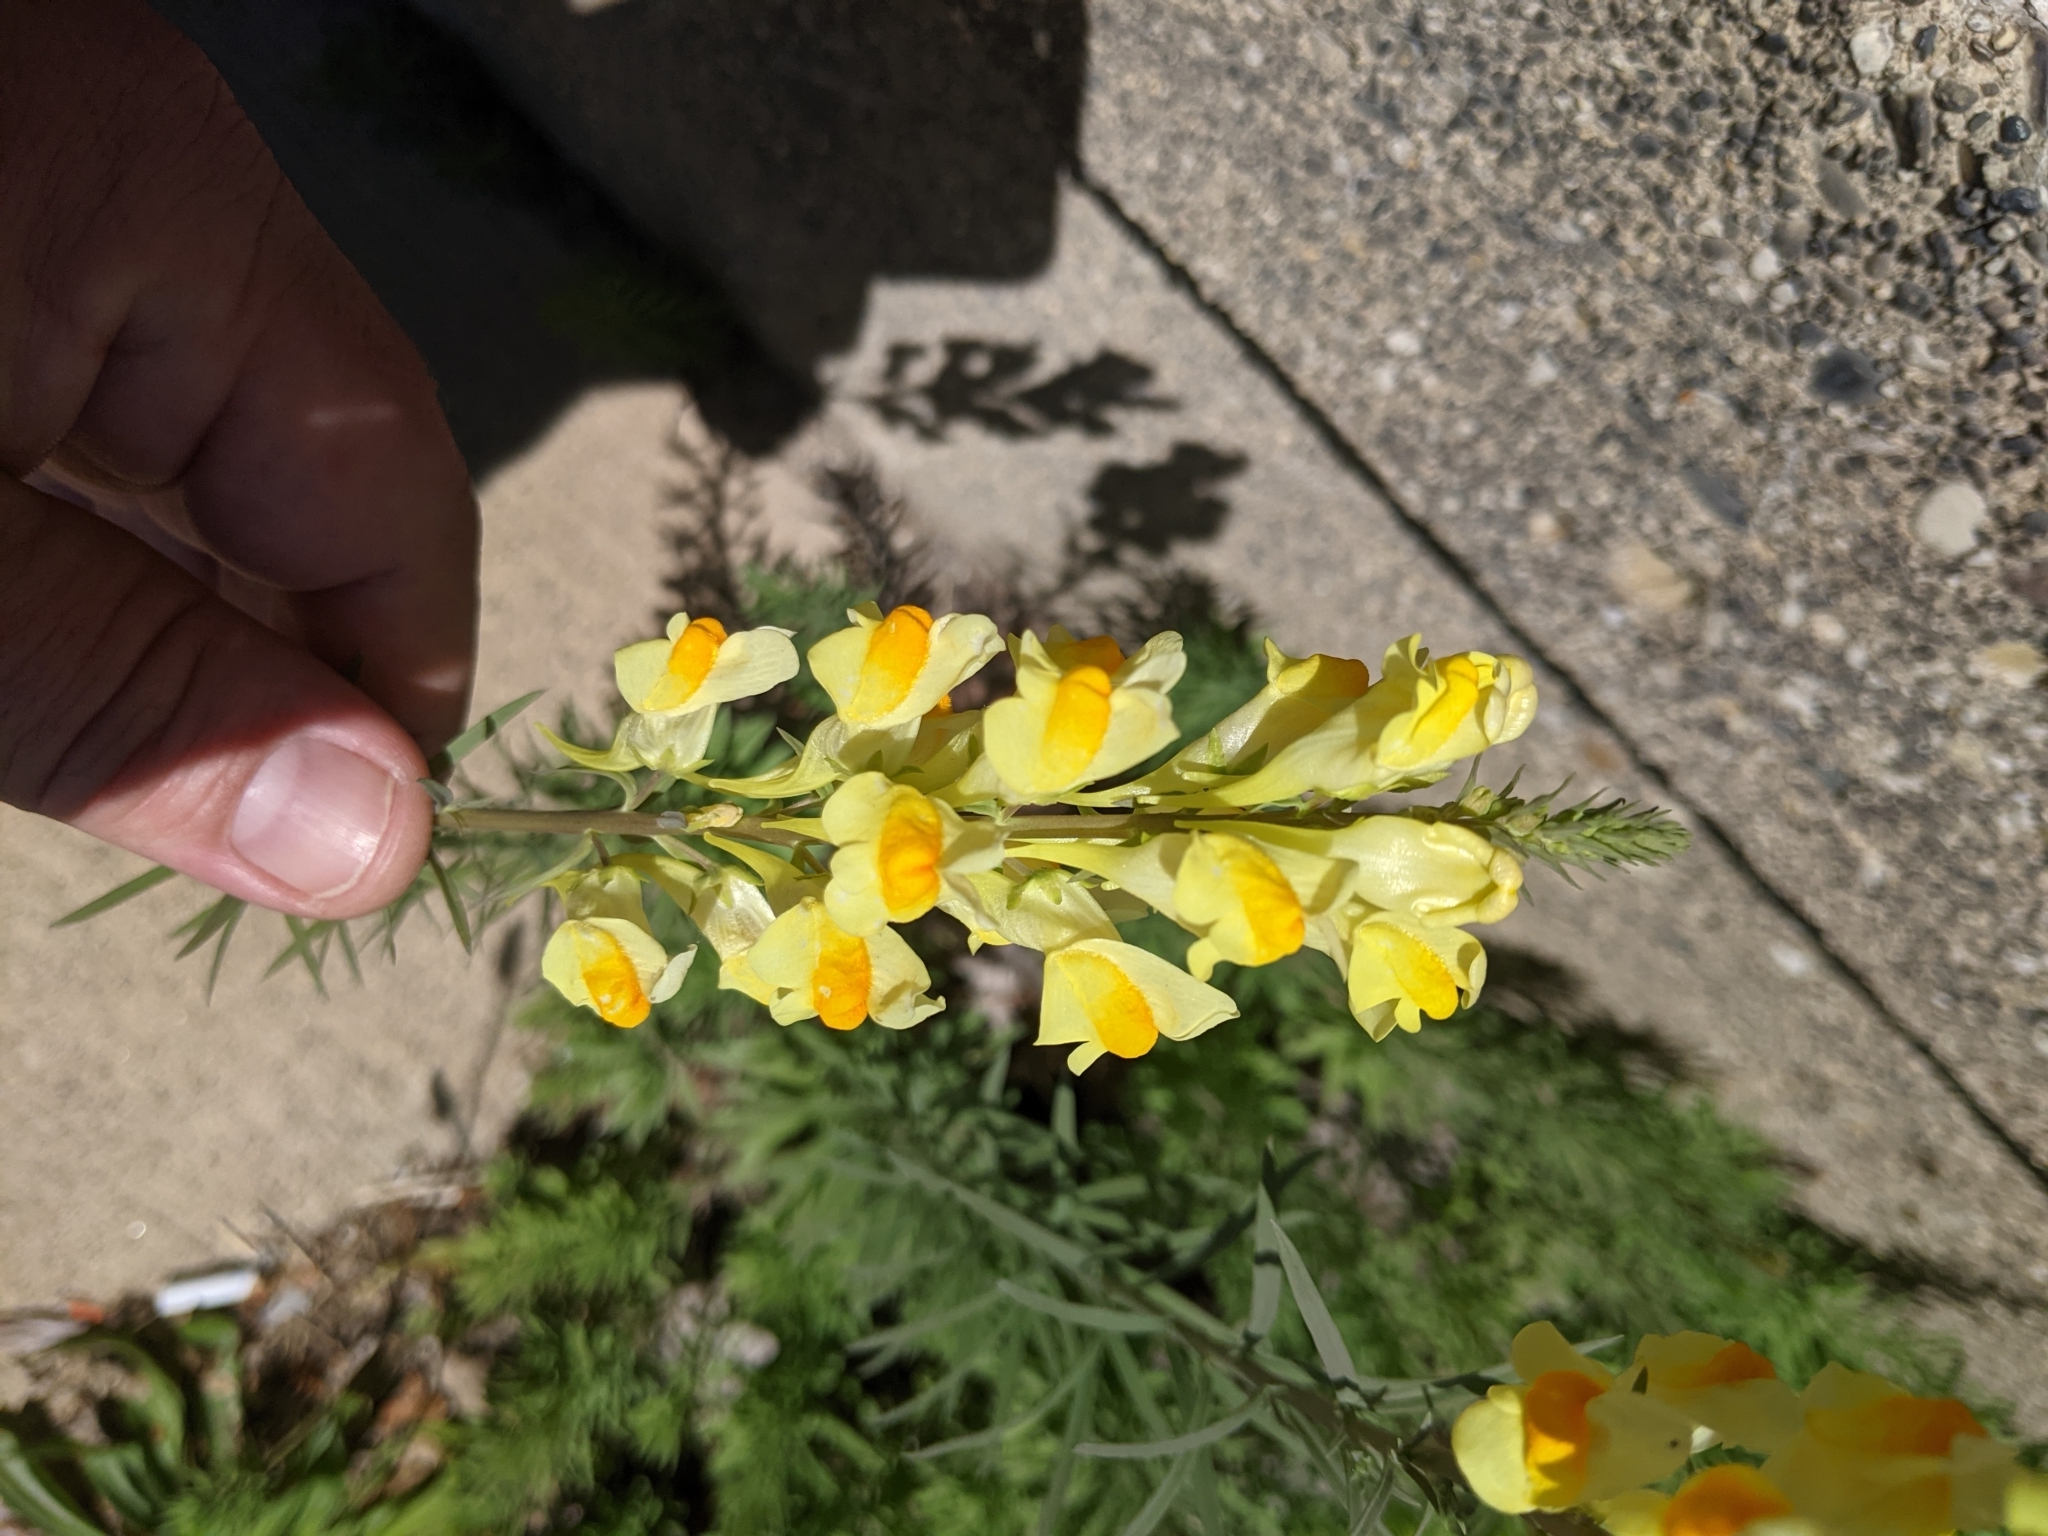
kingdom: Plantae
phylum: Tracheophyta
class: Magnoliopsida
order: Lamiales
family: Plantaginaceae
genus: Linaria
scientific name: Linaria vulgaris
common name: Butter and eggs
